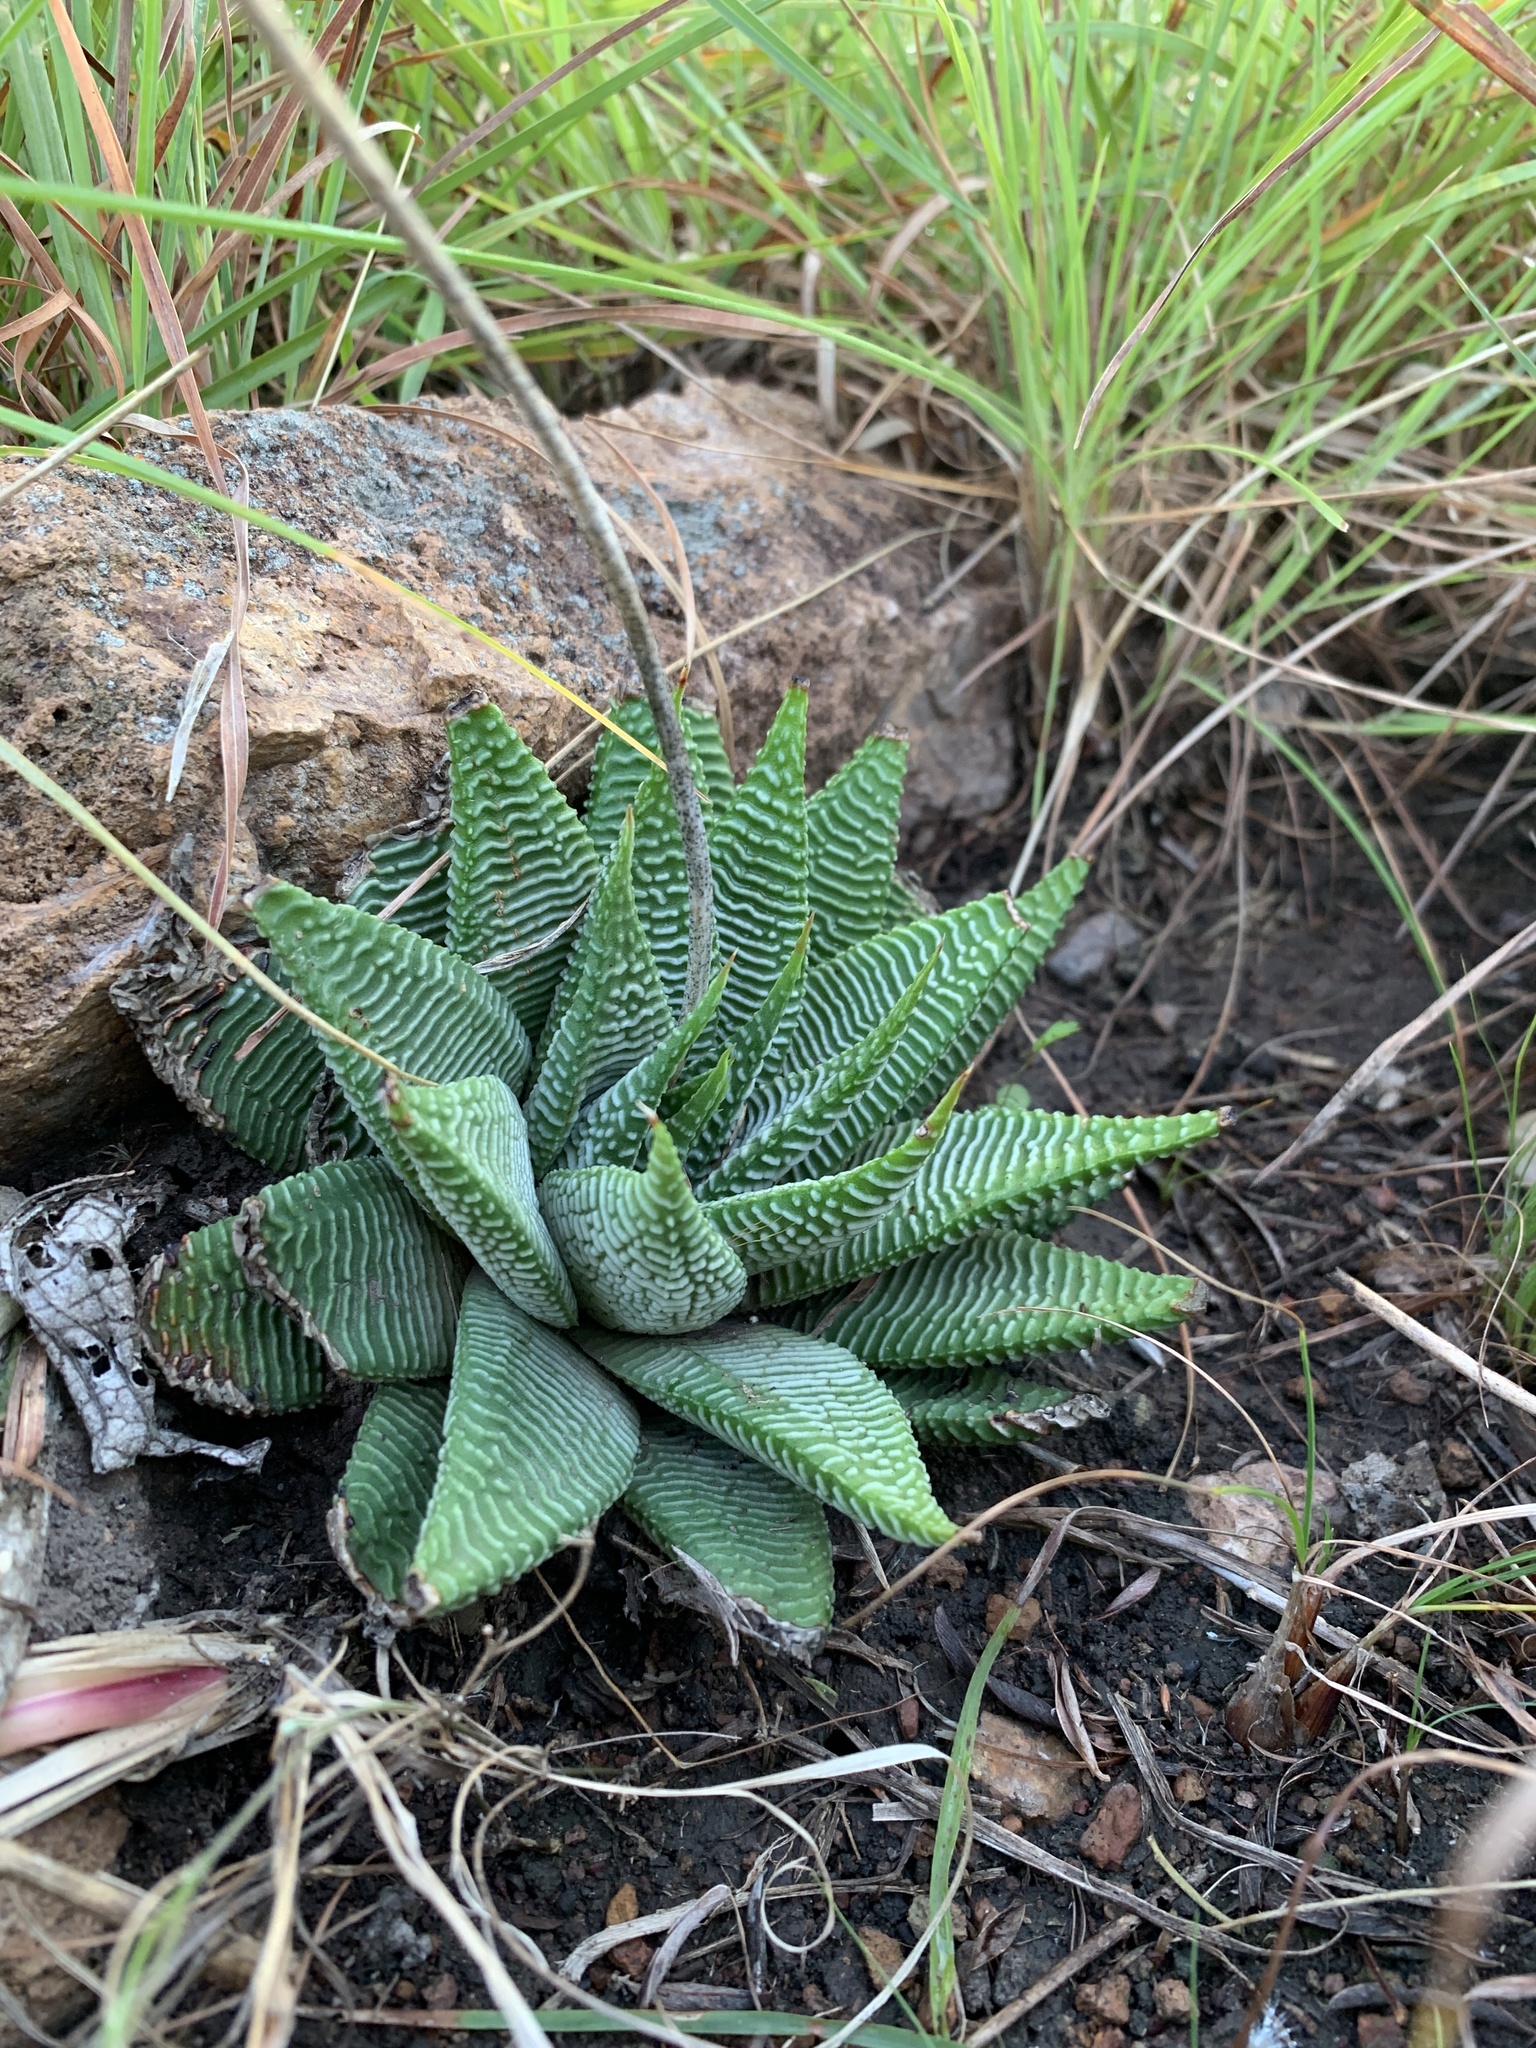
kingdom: Plantae
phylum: Tracheophyta
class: Liliopsida
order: Asparagales
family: Asphodelaceae
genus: Haworthiopsis
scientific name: Haworthiopsis limifolia
